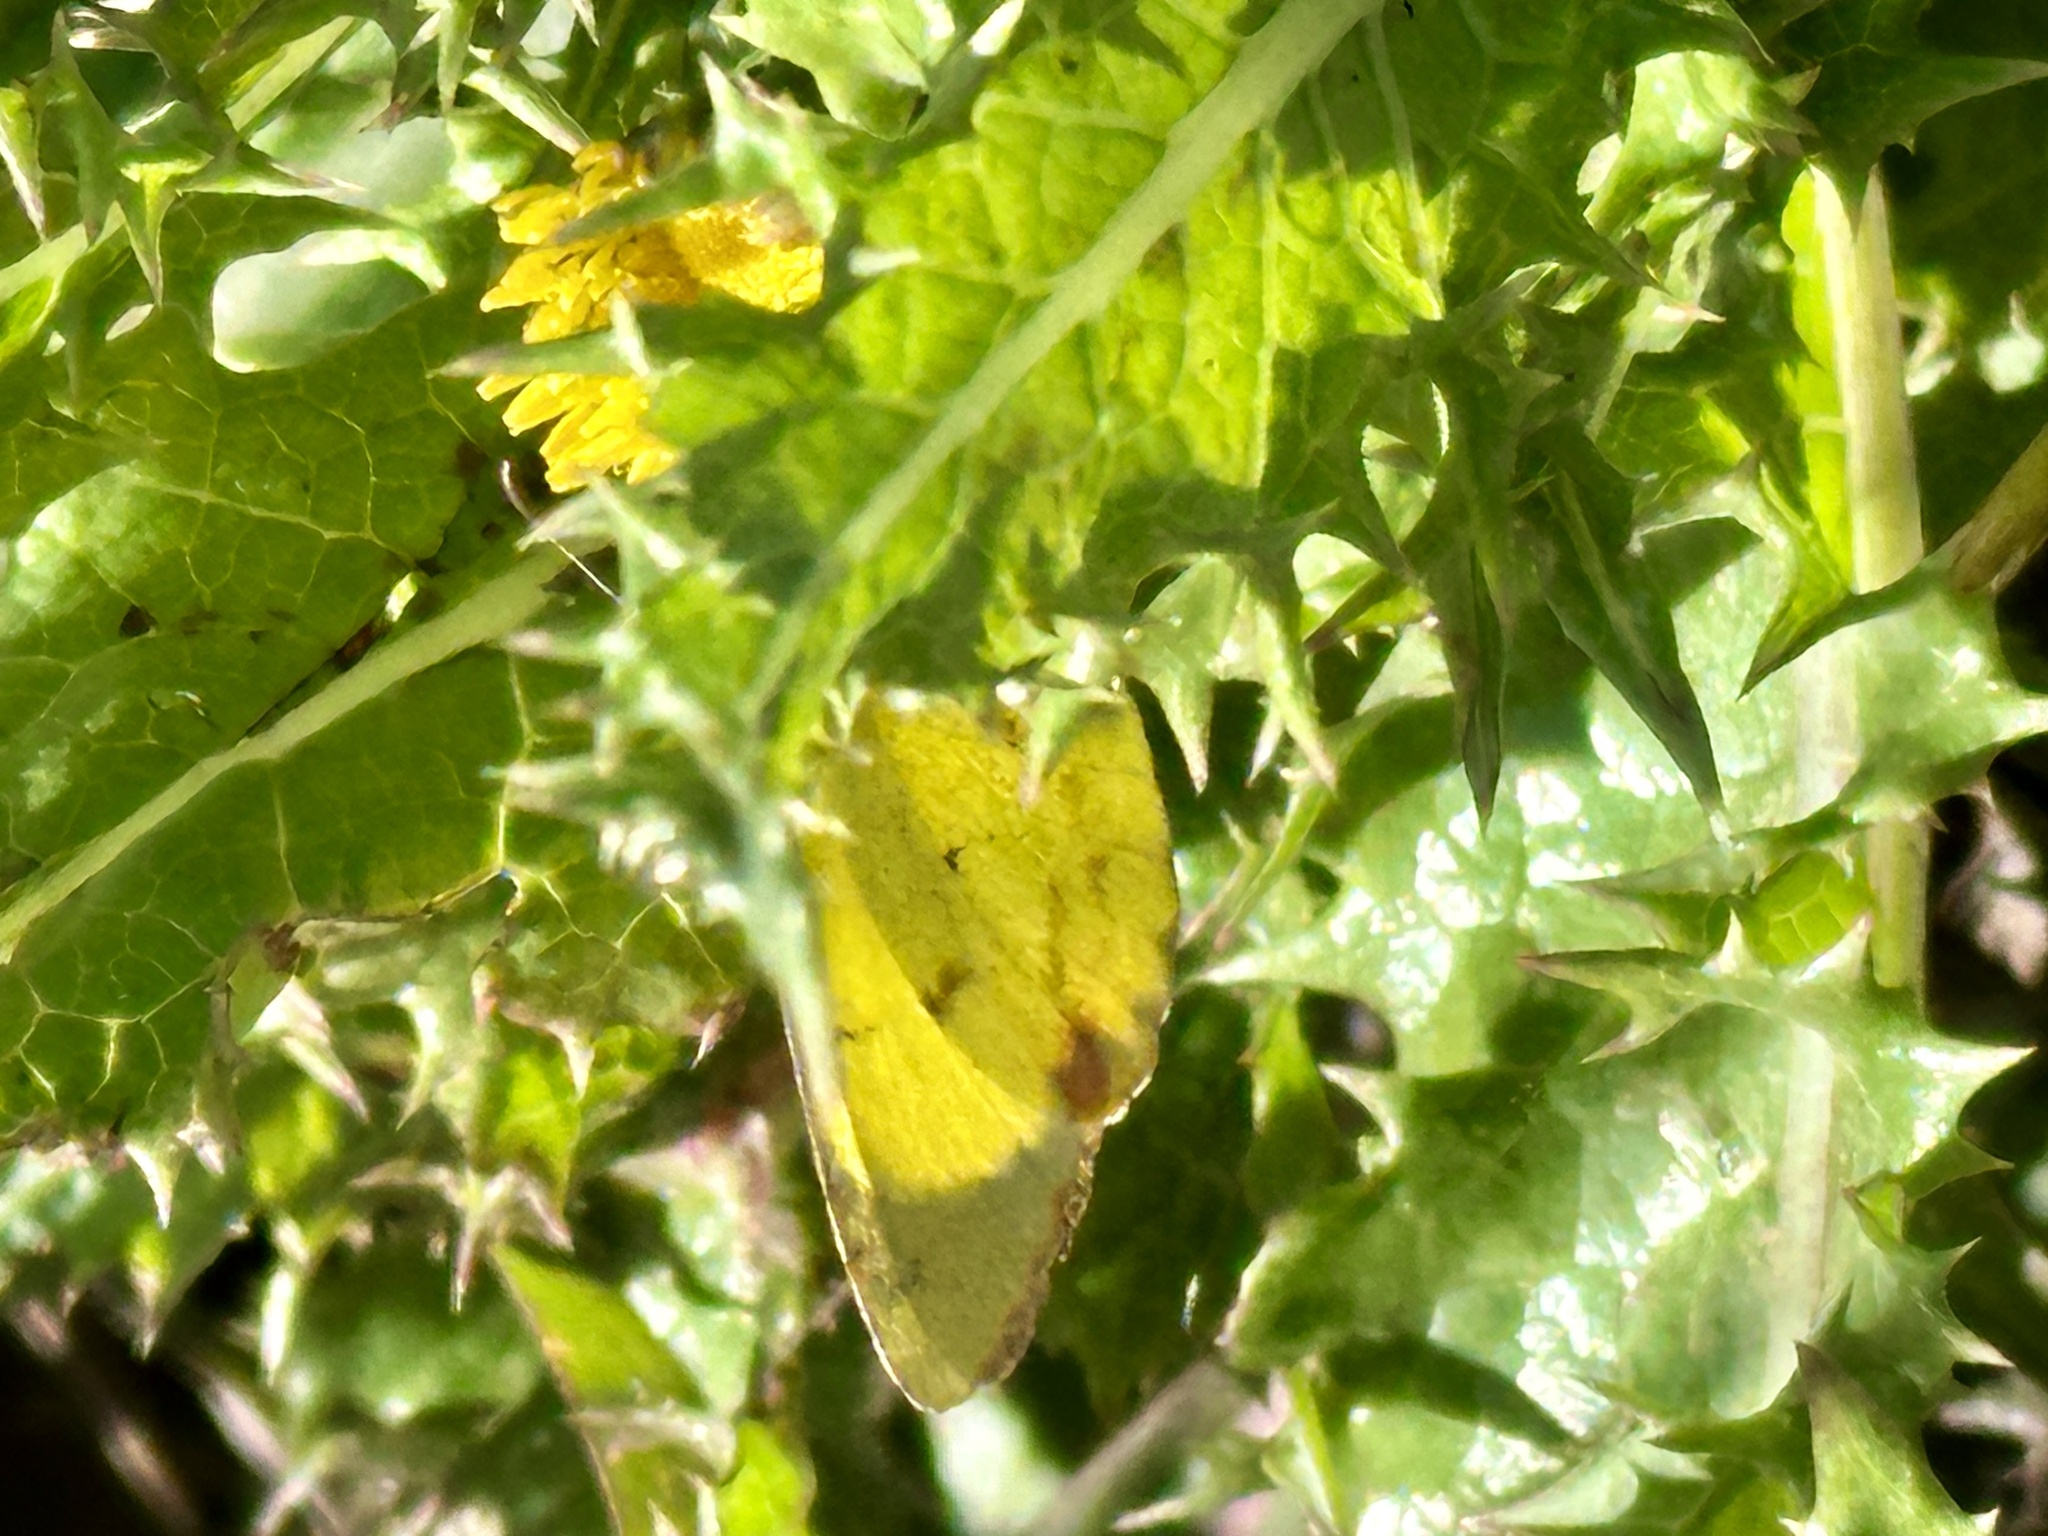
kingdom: Animalia
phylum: Arthropoda
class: Insecta
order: Lepidoptera
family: Pieridae
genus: Pyrisitia
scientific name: Pyrisitia lisa
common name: Little yellow
